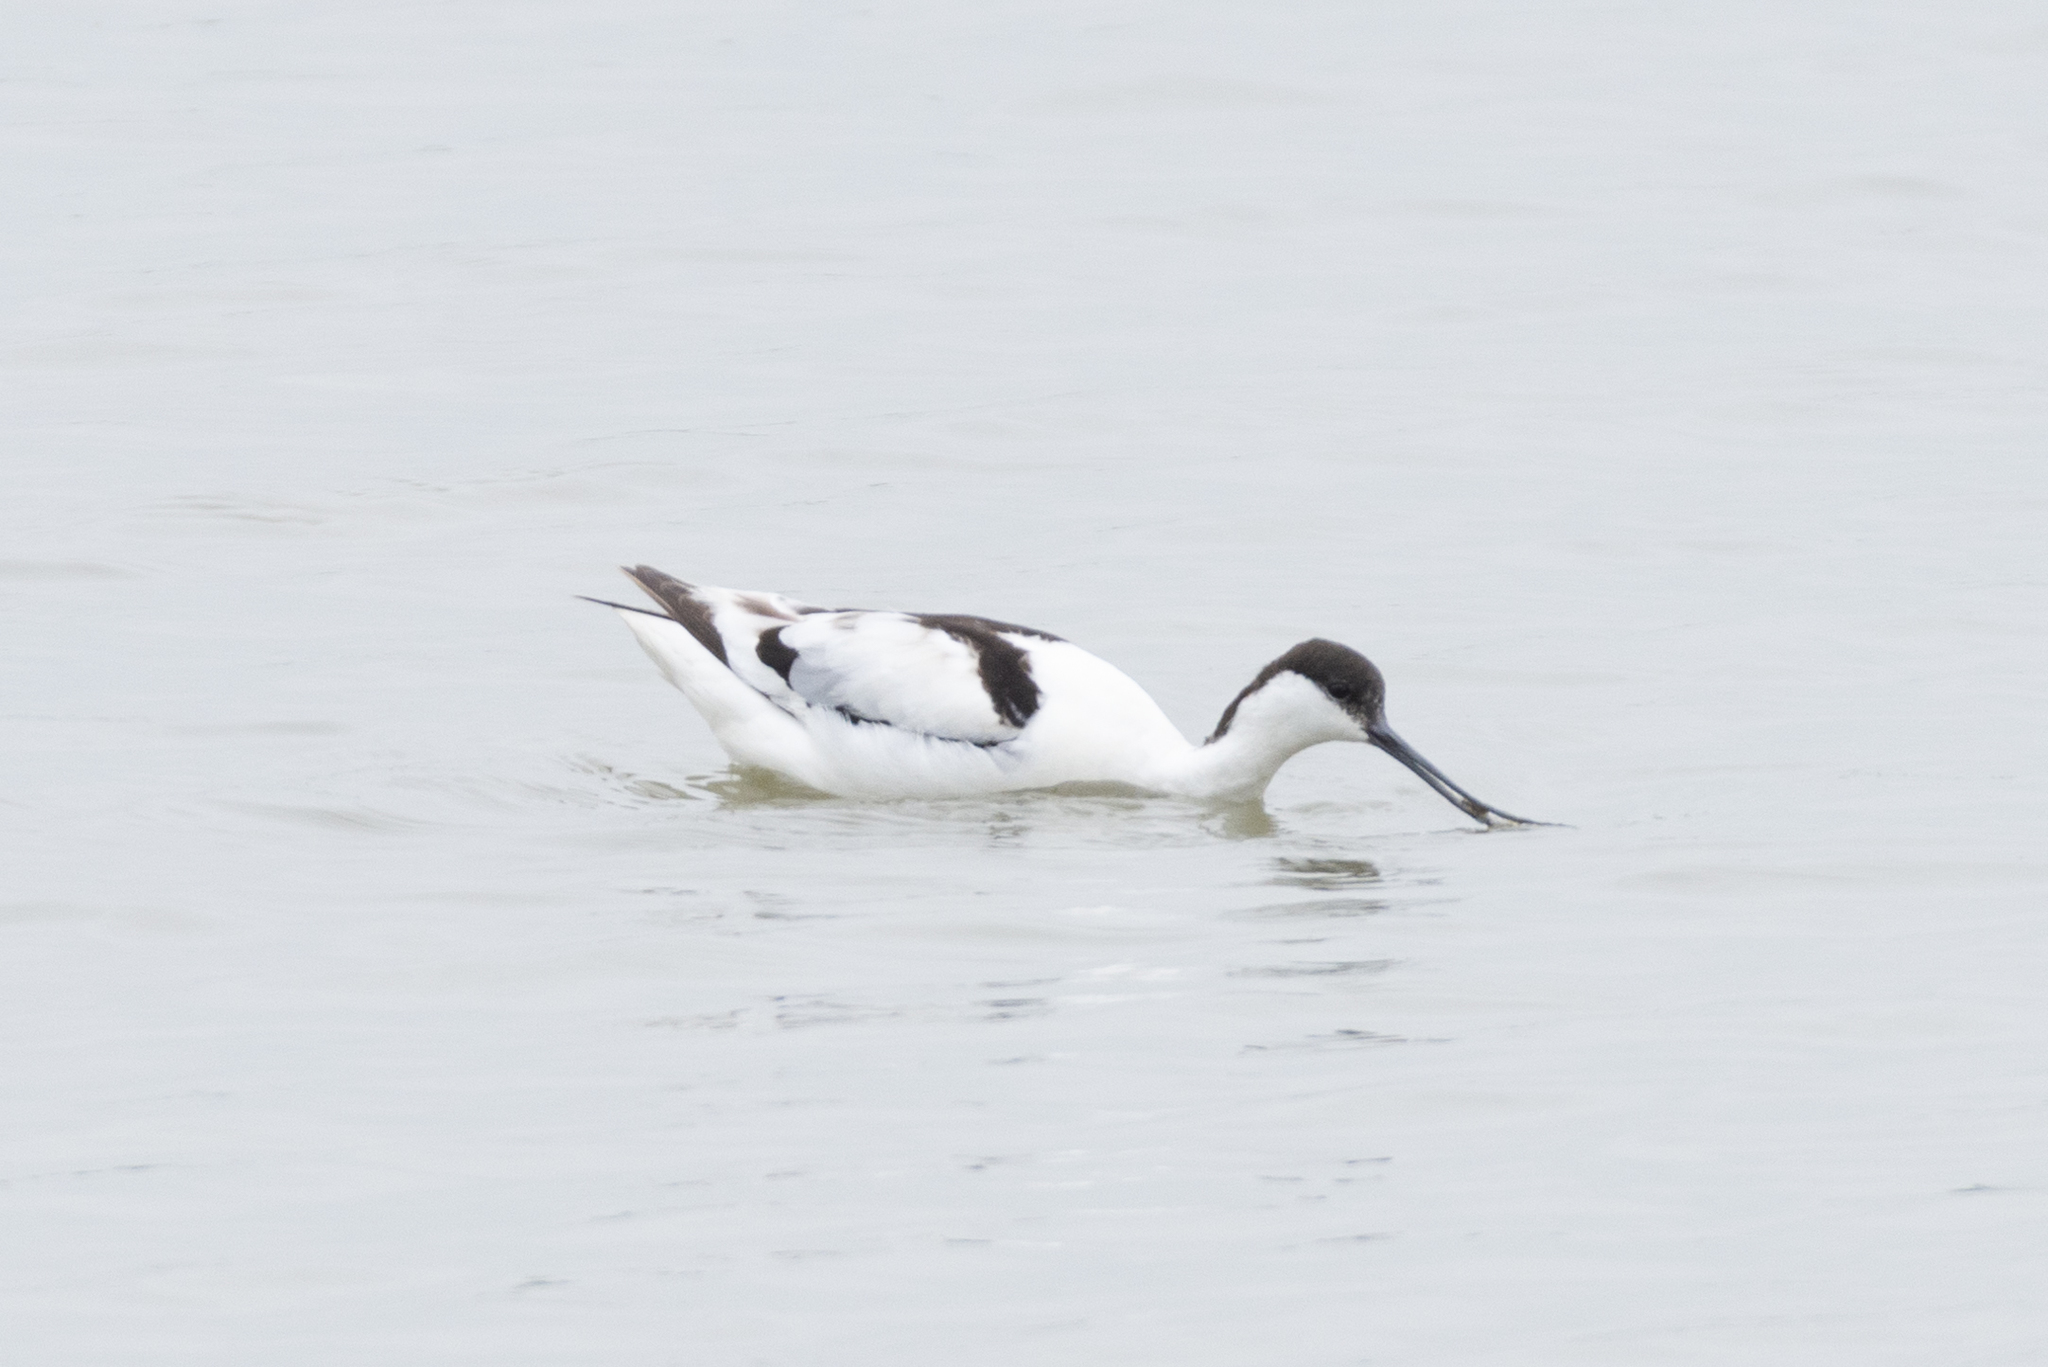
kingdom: Animalia
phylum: Chordata
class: Aves
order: Charadriiformes
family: Recurvirostridae
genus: Recurvirostra
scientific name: Recurvirostra avosetta
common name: Pied avocet
